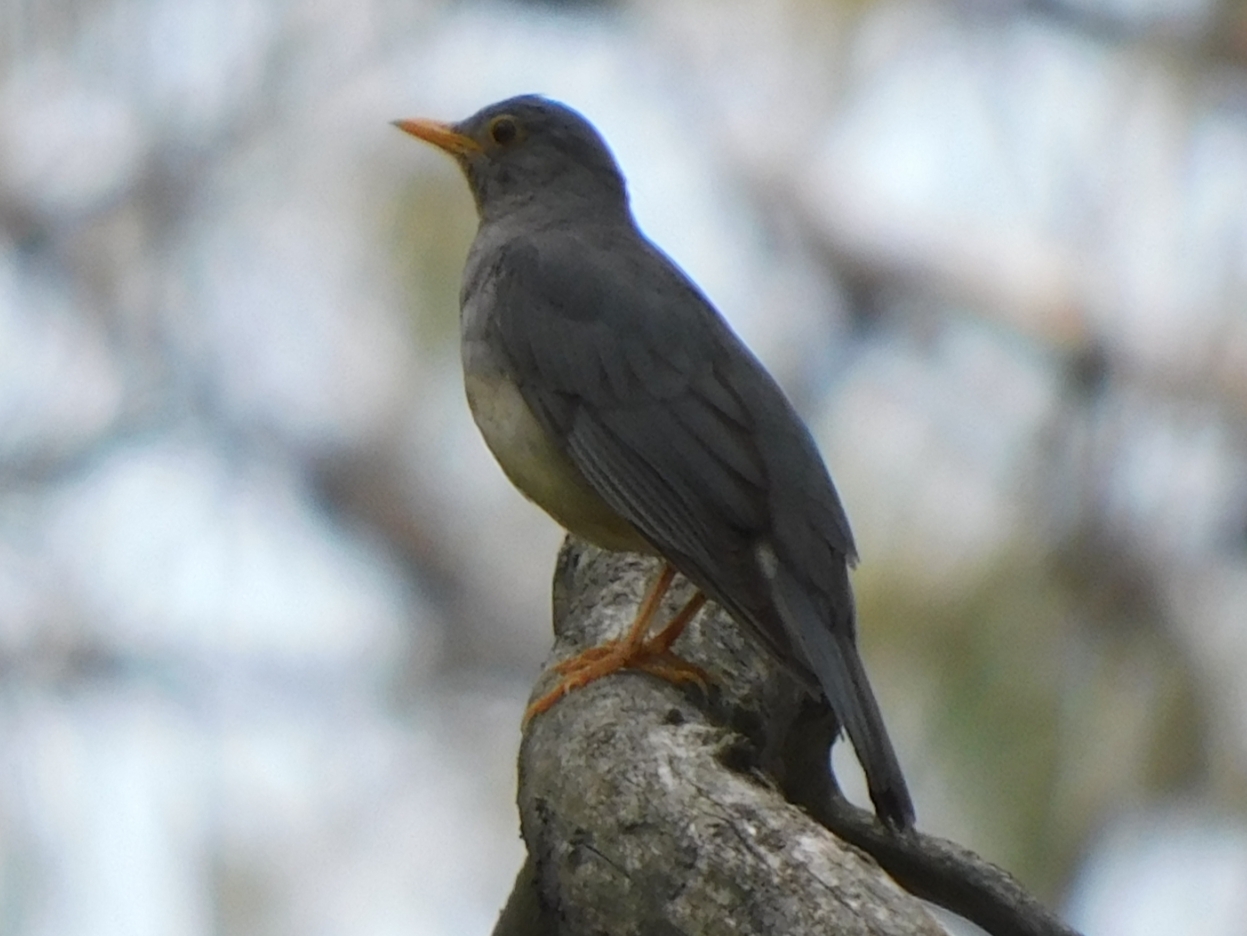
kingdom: Animalia
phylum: Chordata
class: Aves
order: Passeriformes
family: Turdidae
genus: Turdus
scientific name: Turdus unicolor
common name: Tickell's thrush
